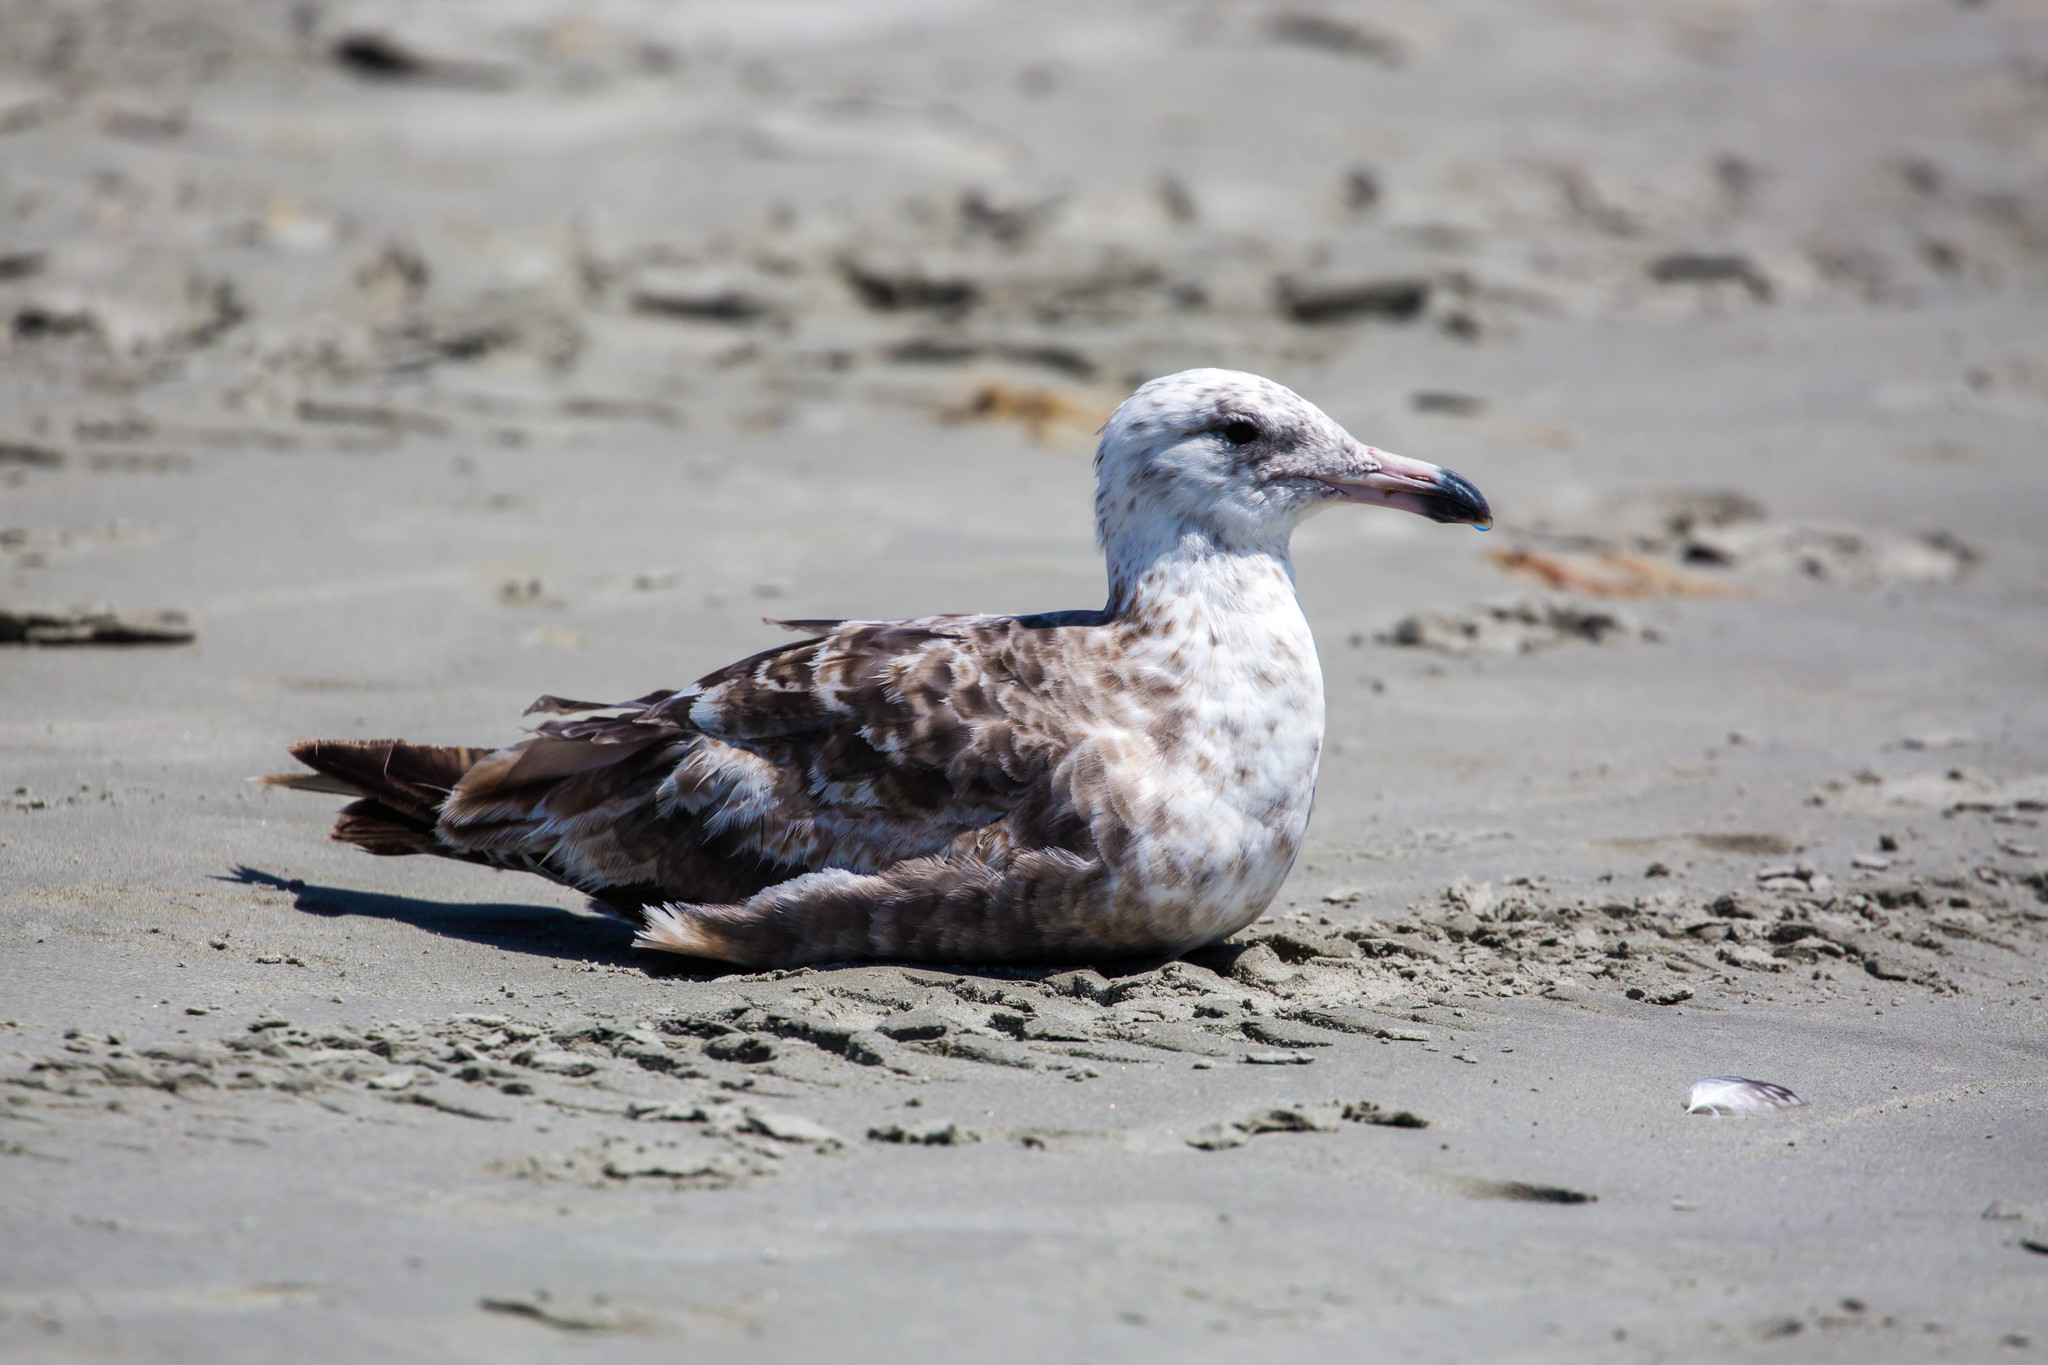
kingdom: Animalia
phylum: Chordata
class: Aves
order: Charadriiformes
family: Laridae
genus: Larus
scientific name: Larus argentatus
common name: Herring gull
